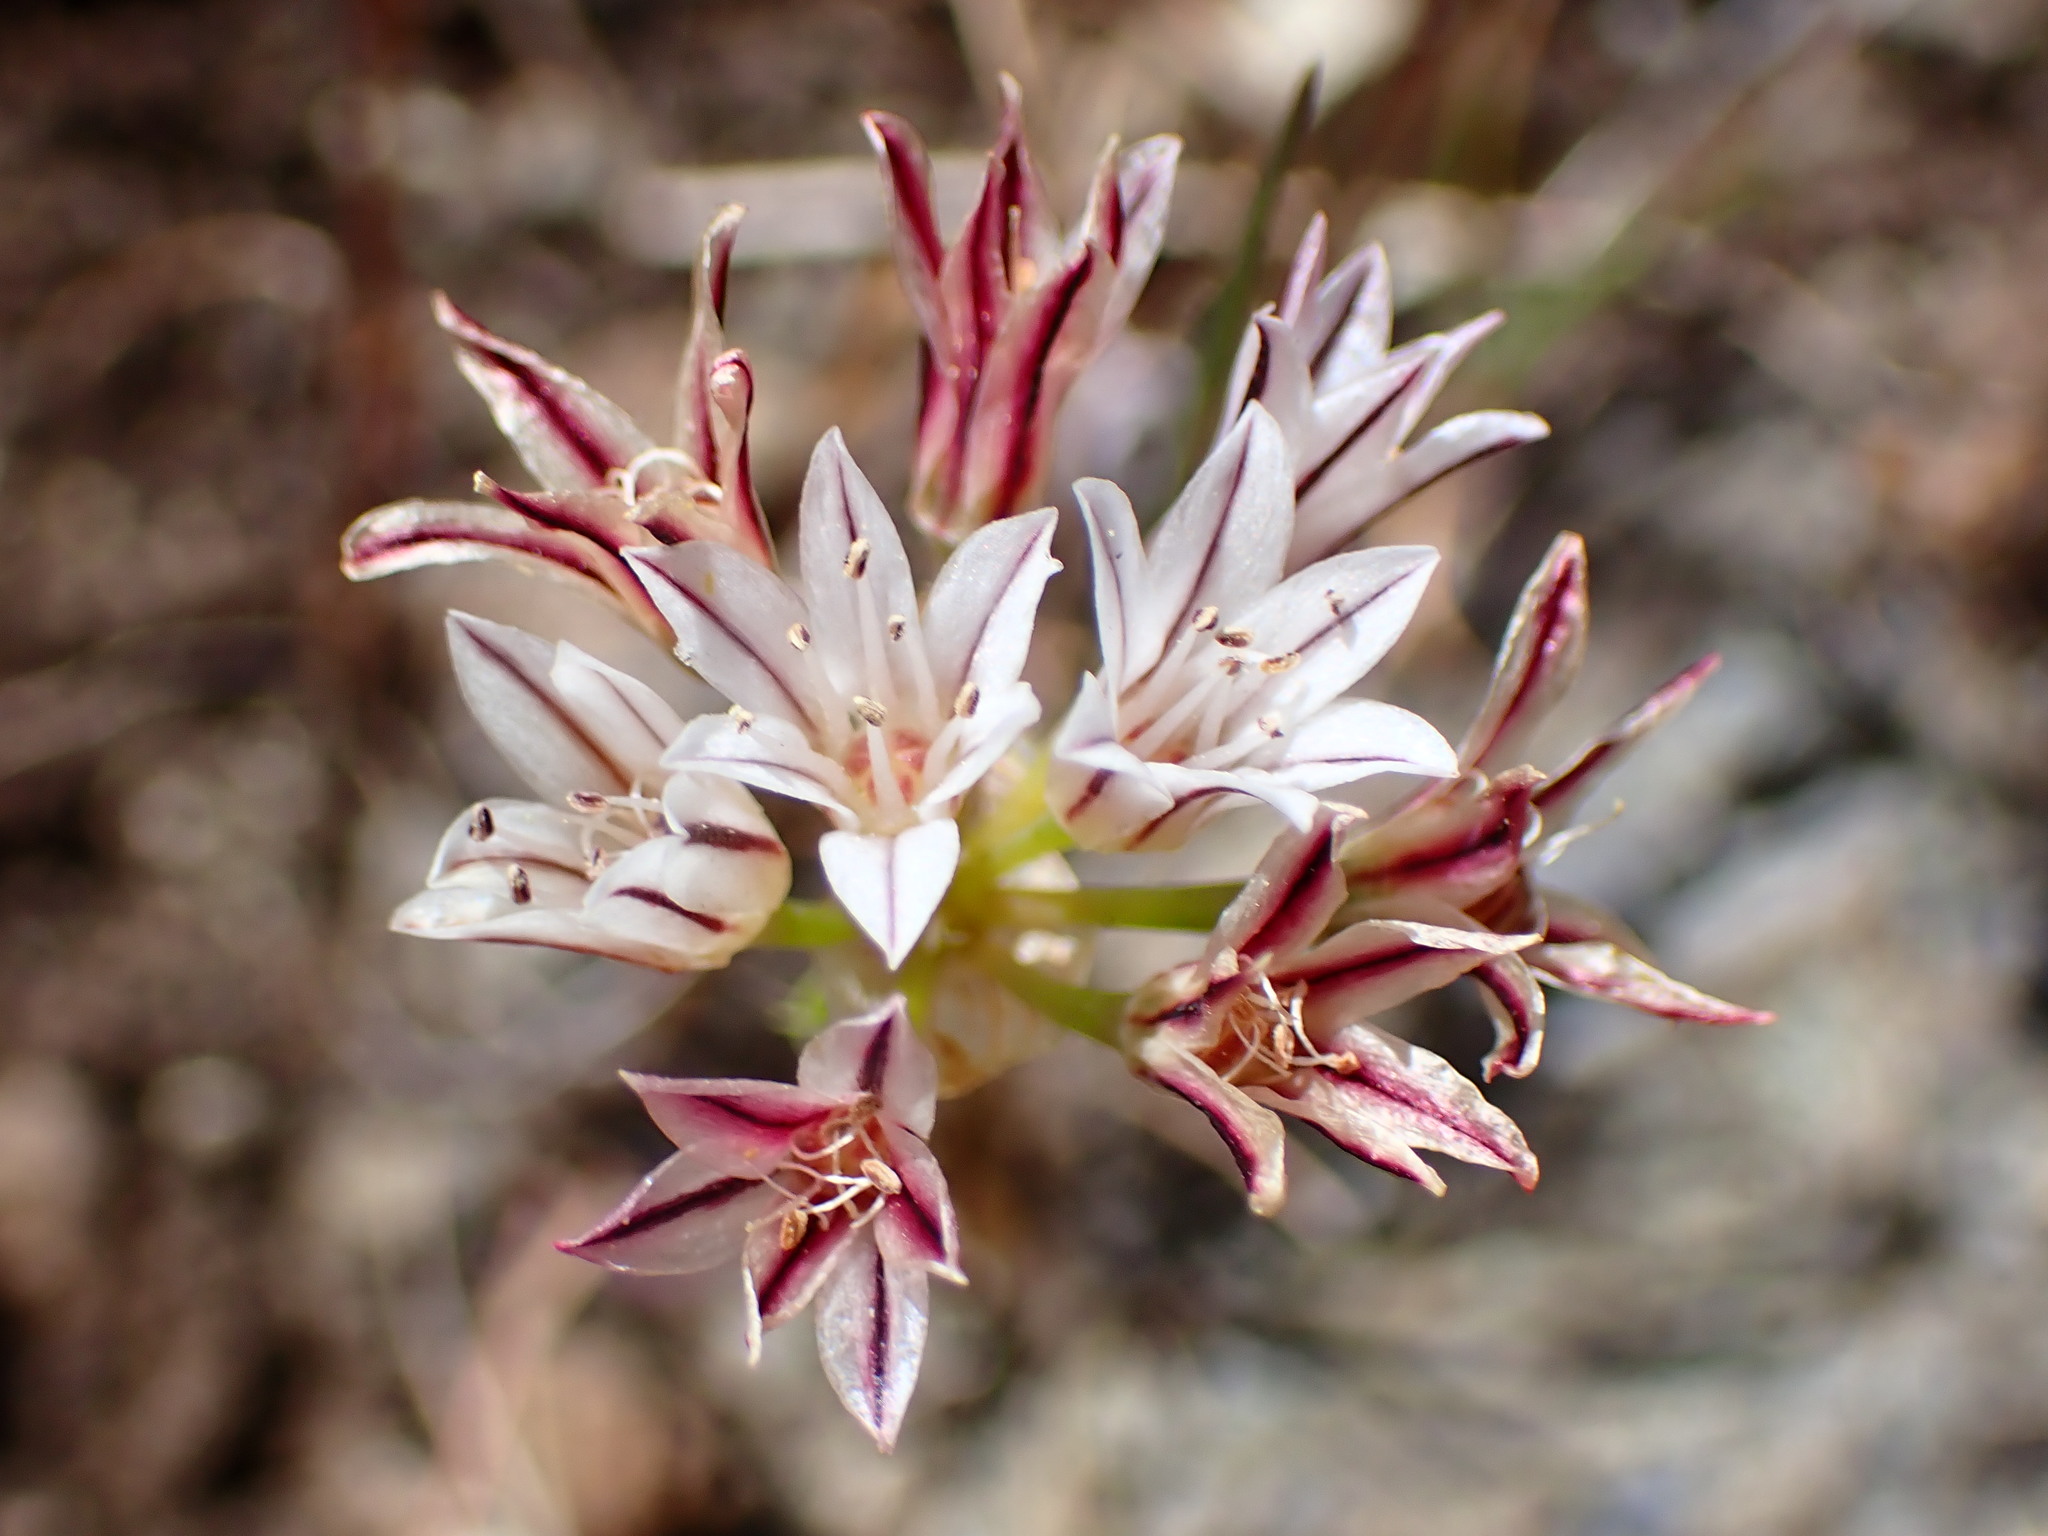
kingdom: Plantae
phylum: Tracheophyta
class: Liliopsida
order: Asparagales
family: Amaryllidaceae
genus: Allium
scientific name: Allium lacunosum
